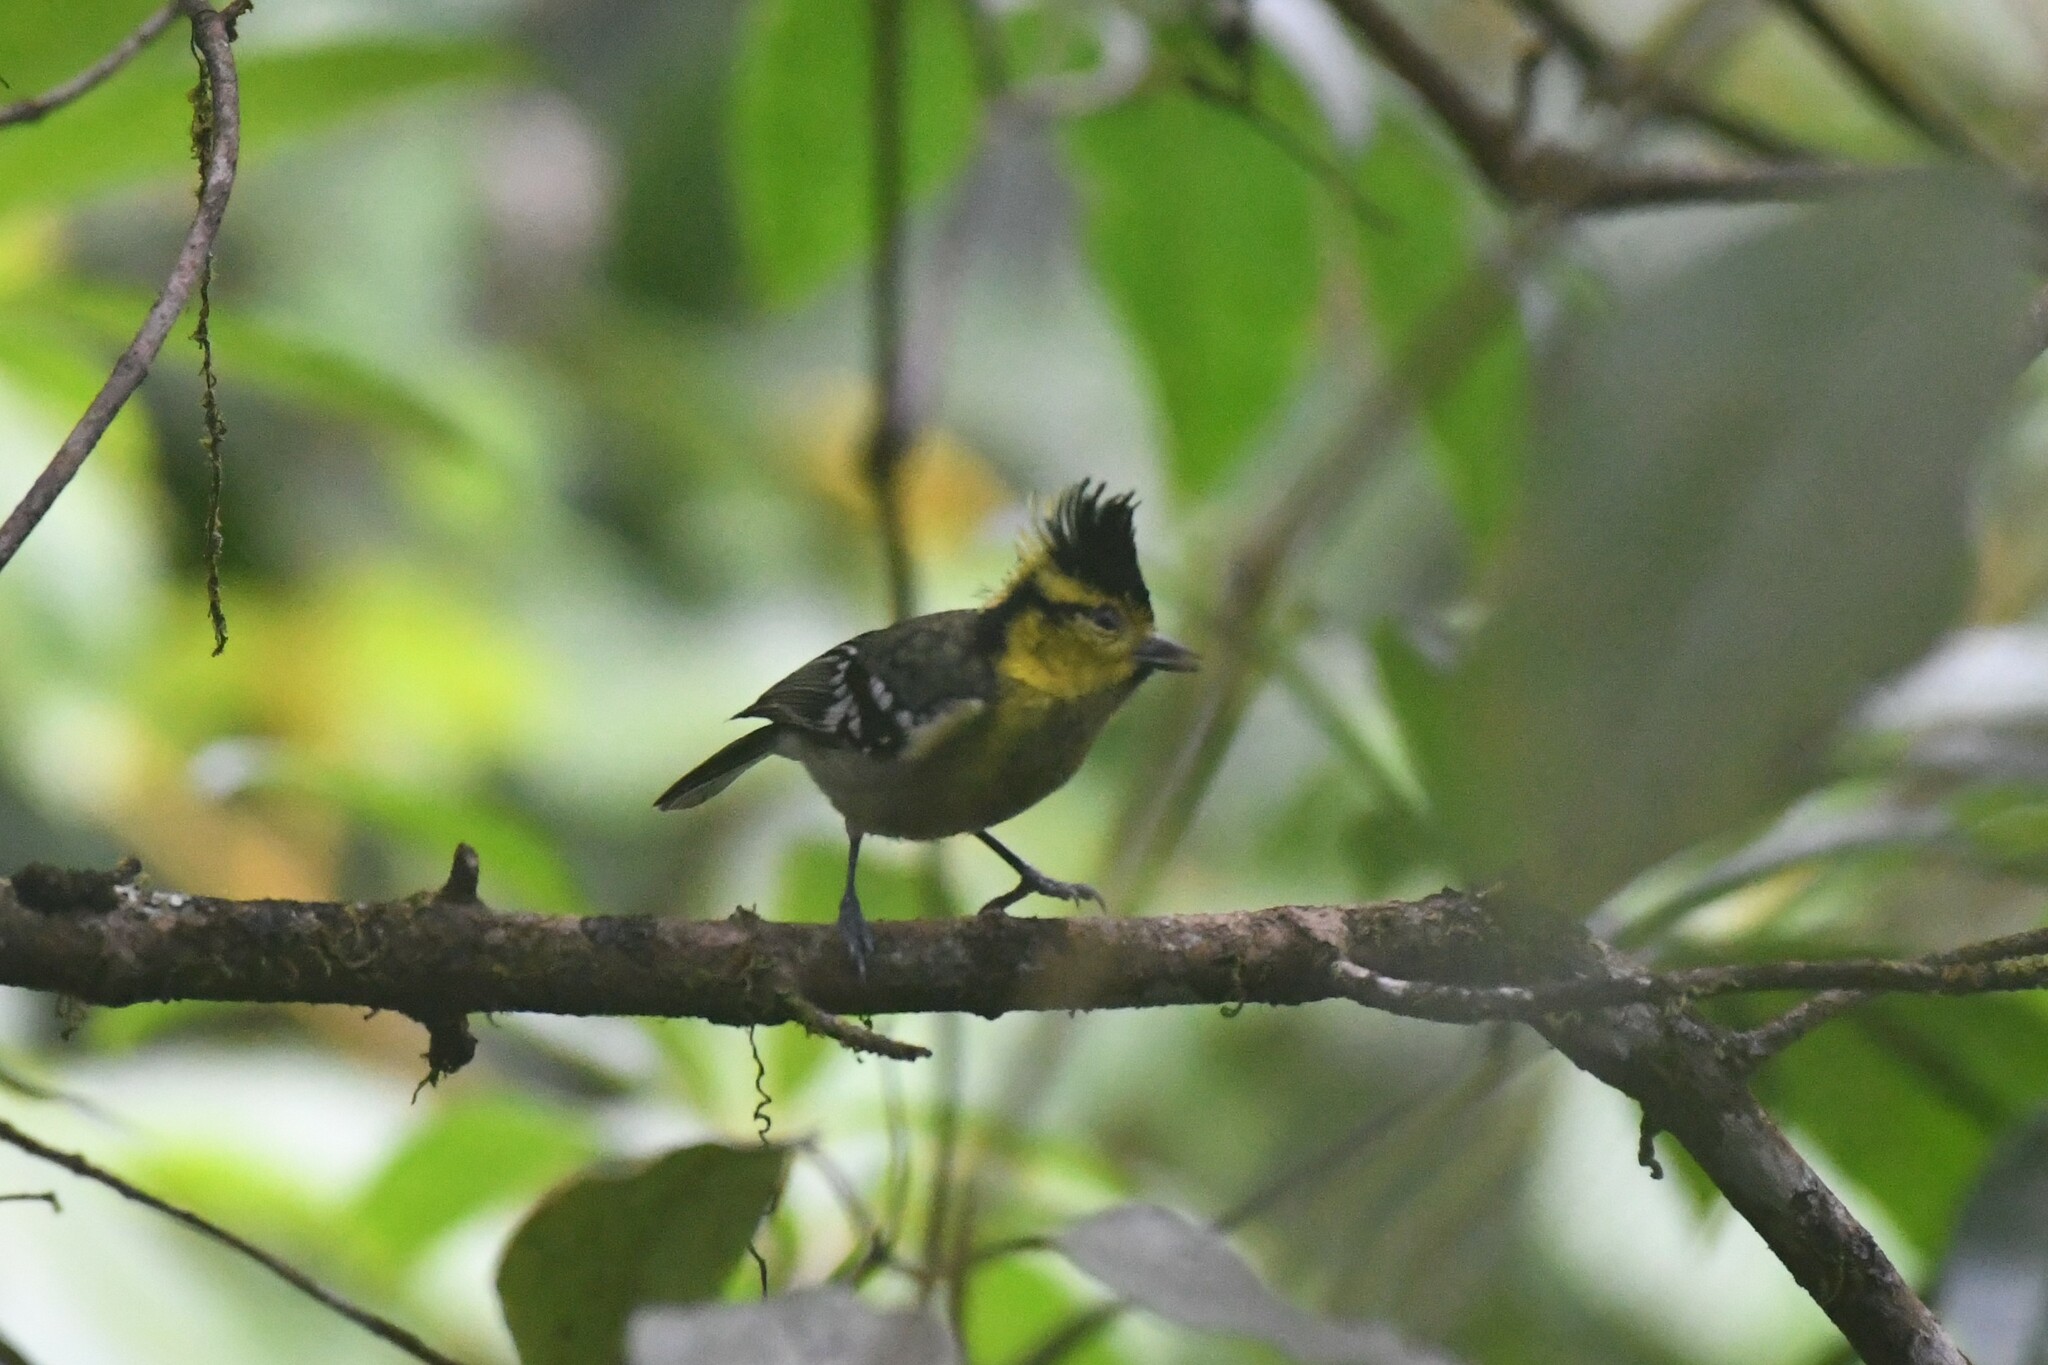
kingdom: Animalia
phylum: Chordata
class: Aves
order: Passeriformes
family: Paridae
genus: Parus
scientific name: Parus spilonotus
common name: Yellow-cheeked tit
